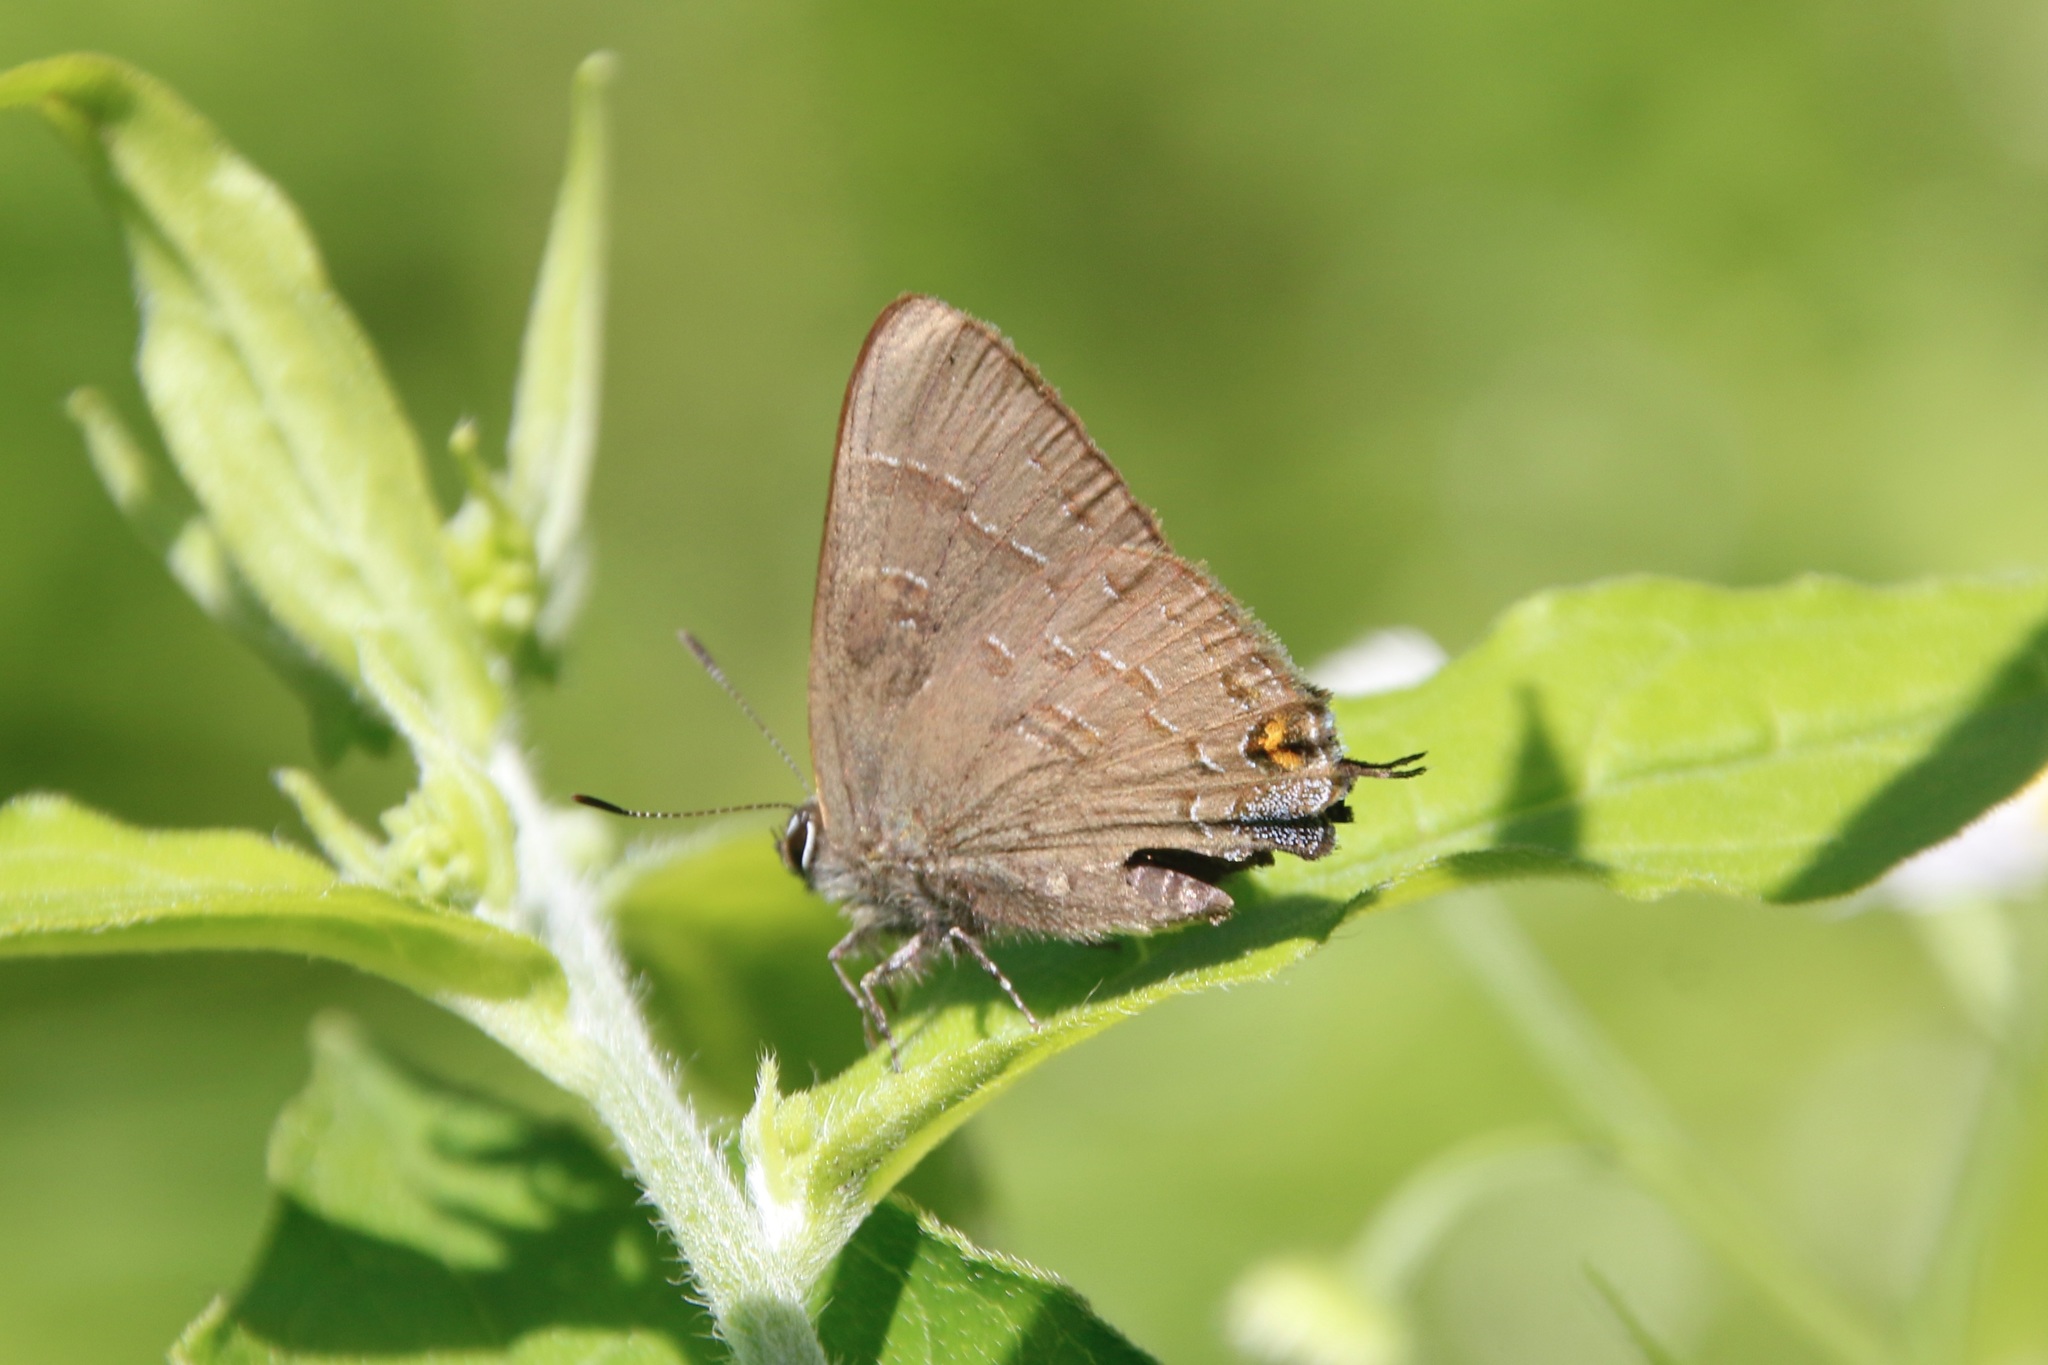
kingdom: Animalia
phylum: Arthropoda
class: Insecta
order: Lepidoptera
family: Lycaenidae
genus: Satyrium
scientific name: Satyrium calanus
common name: Banded hairstreak
